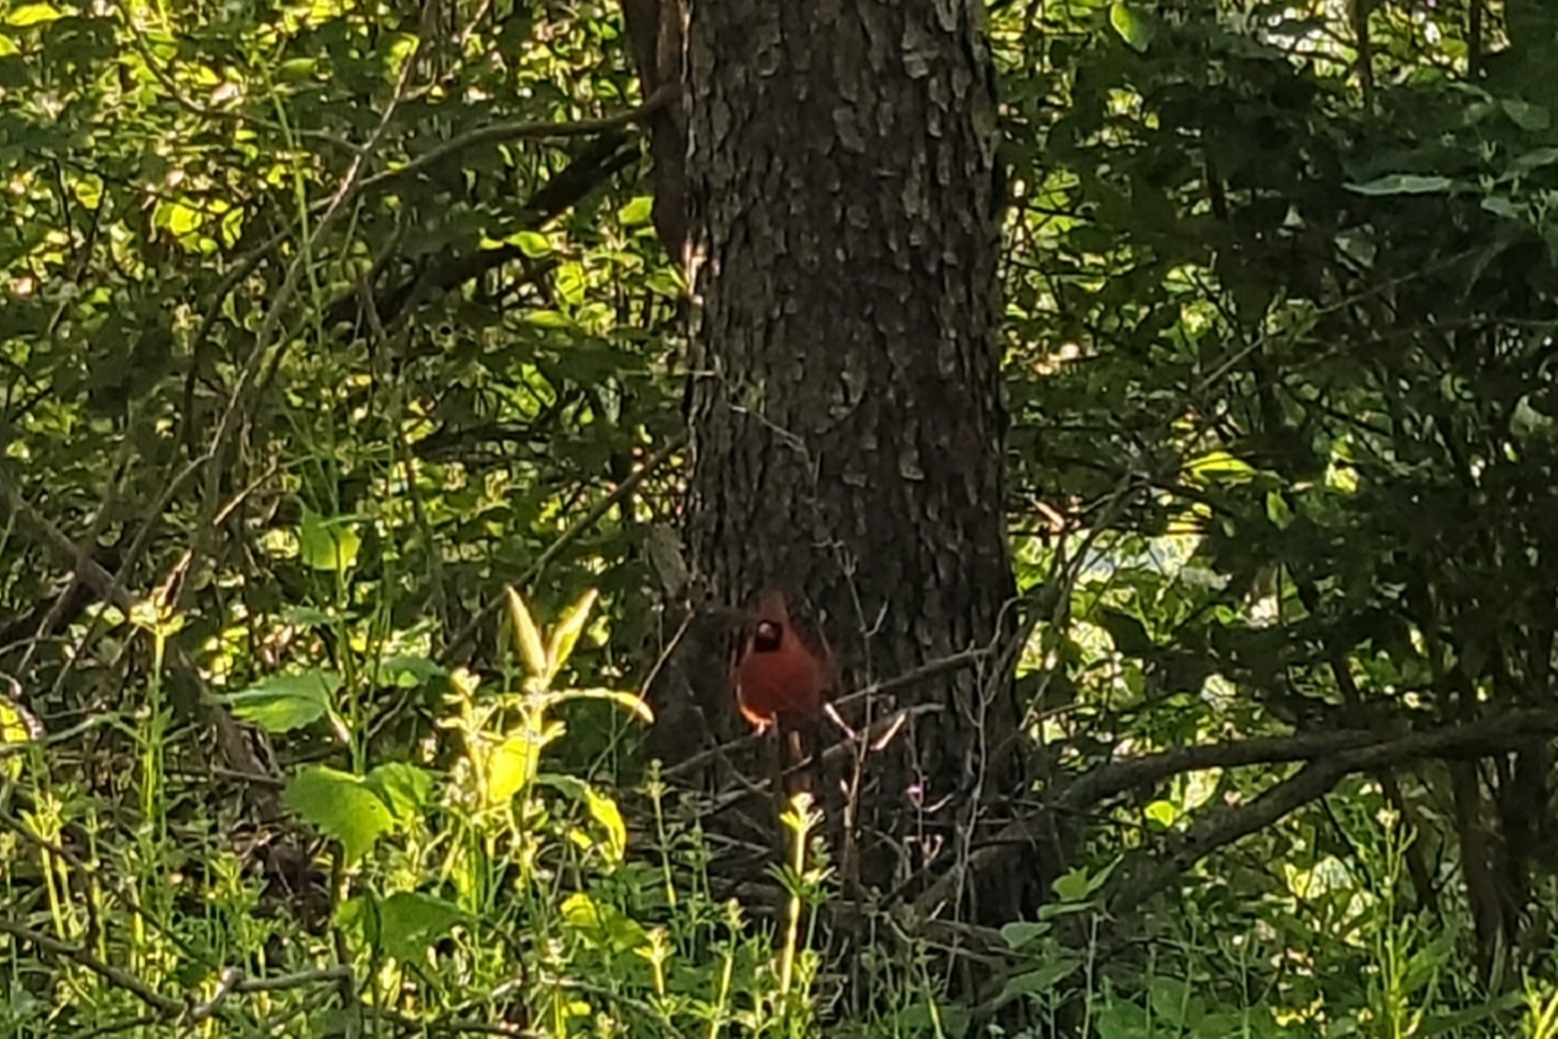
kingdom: Animalia
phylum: Chordata
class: Aves
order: Passeriformes
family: Cardinalidae
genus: Cardinalis
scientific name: Cardinalis cardinalis
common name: Northern cardinal
